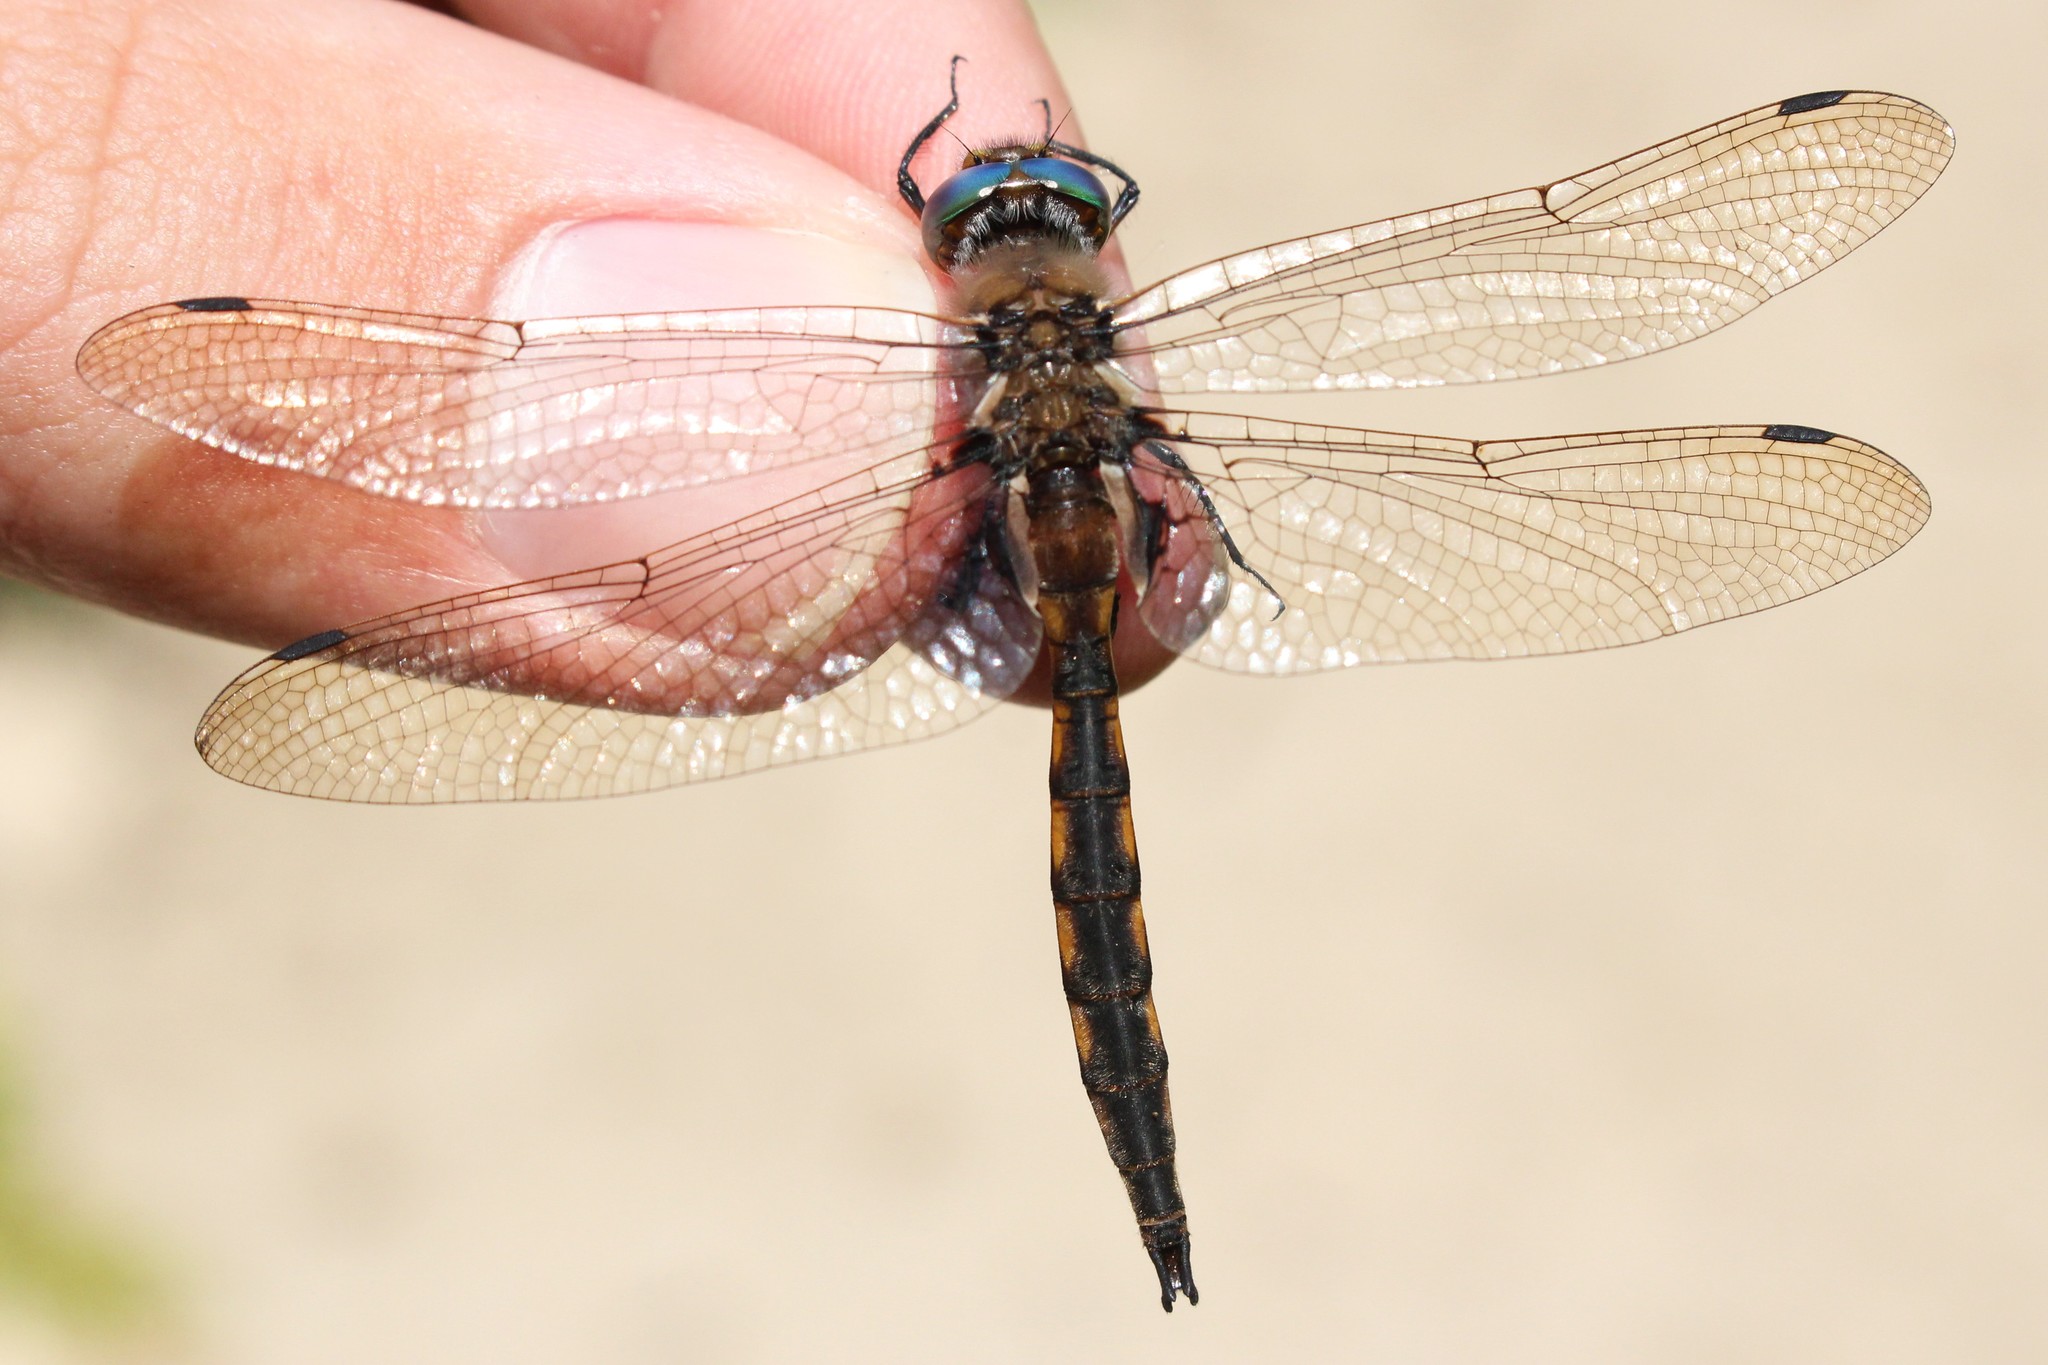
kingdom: Animalia
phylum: Arthropoda
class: Insecta
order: Odonata
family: Corduliidae
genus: Epitheca
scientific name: Epitheca canis
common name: Beaverpond baskettail
